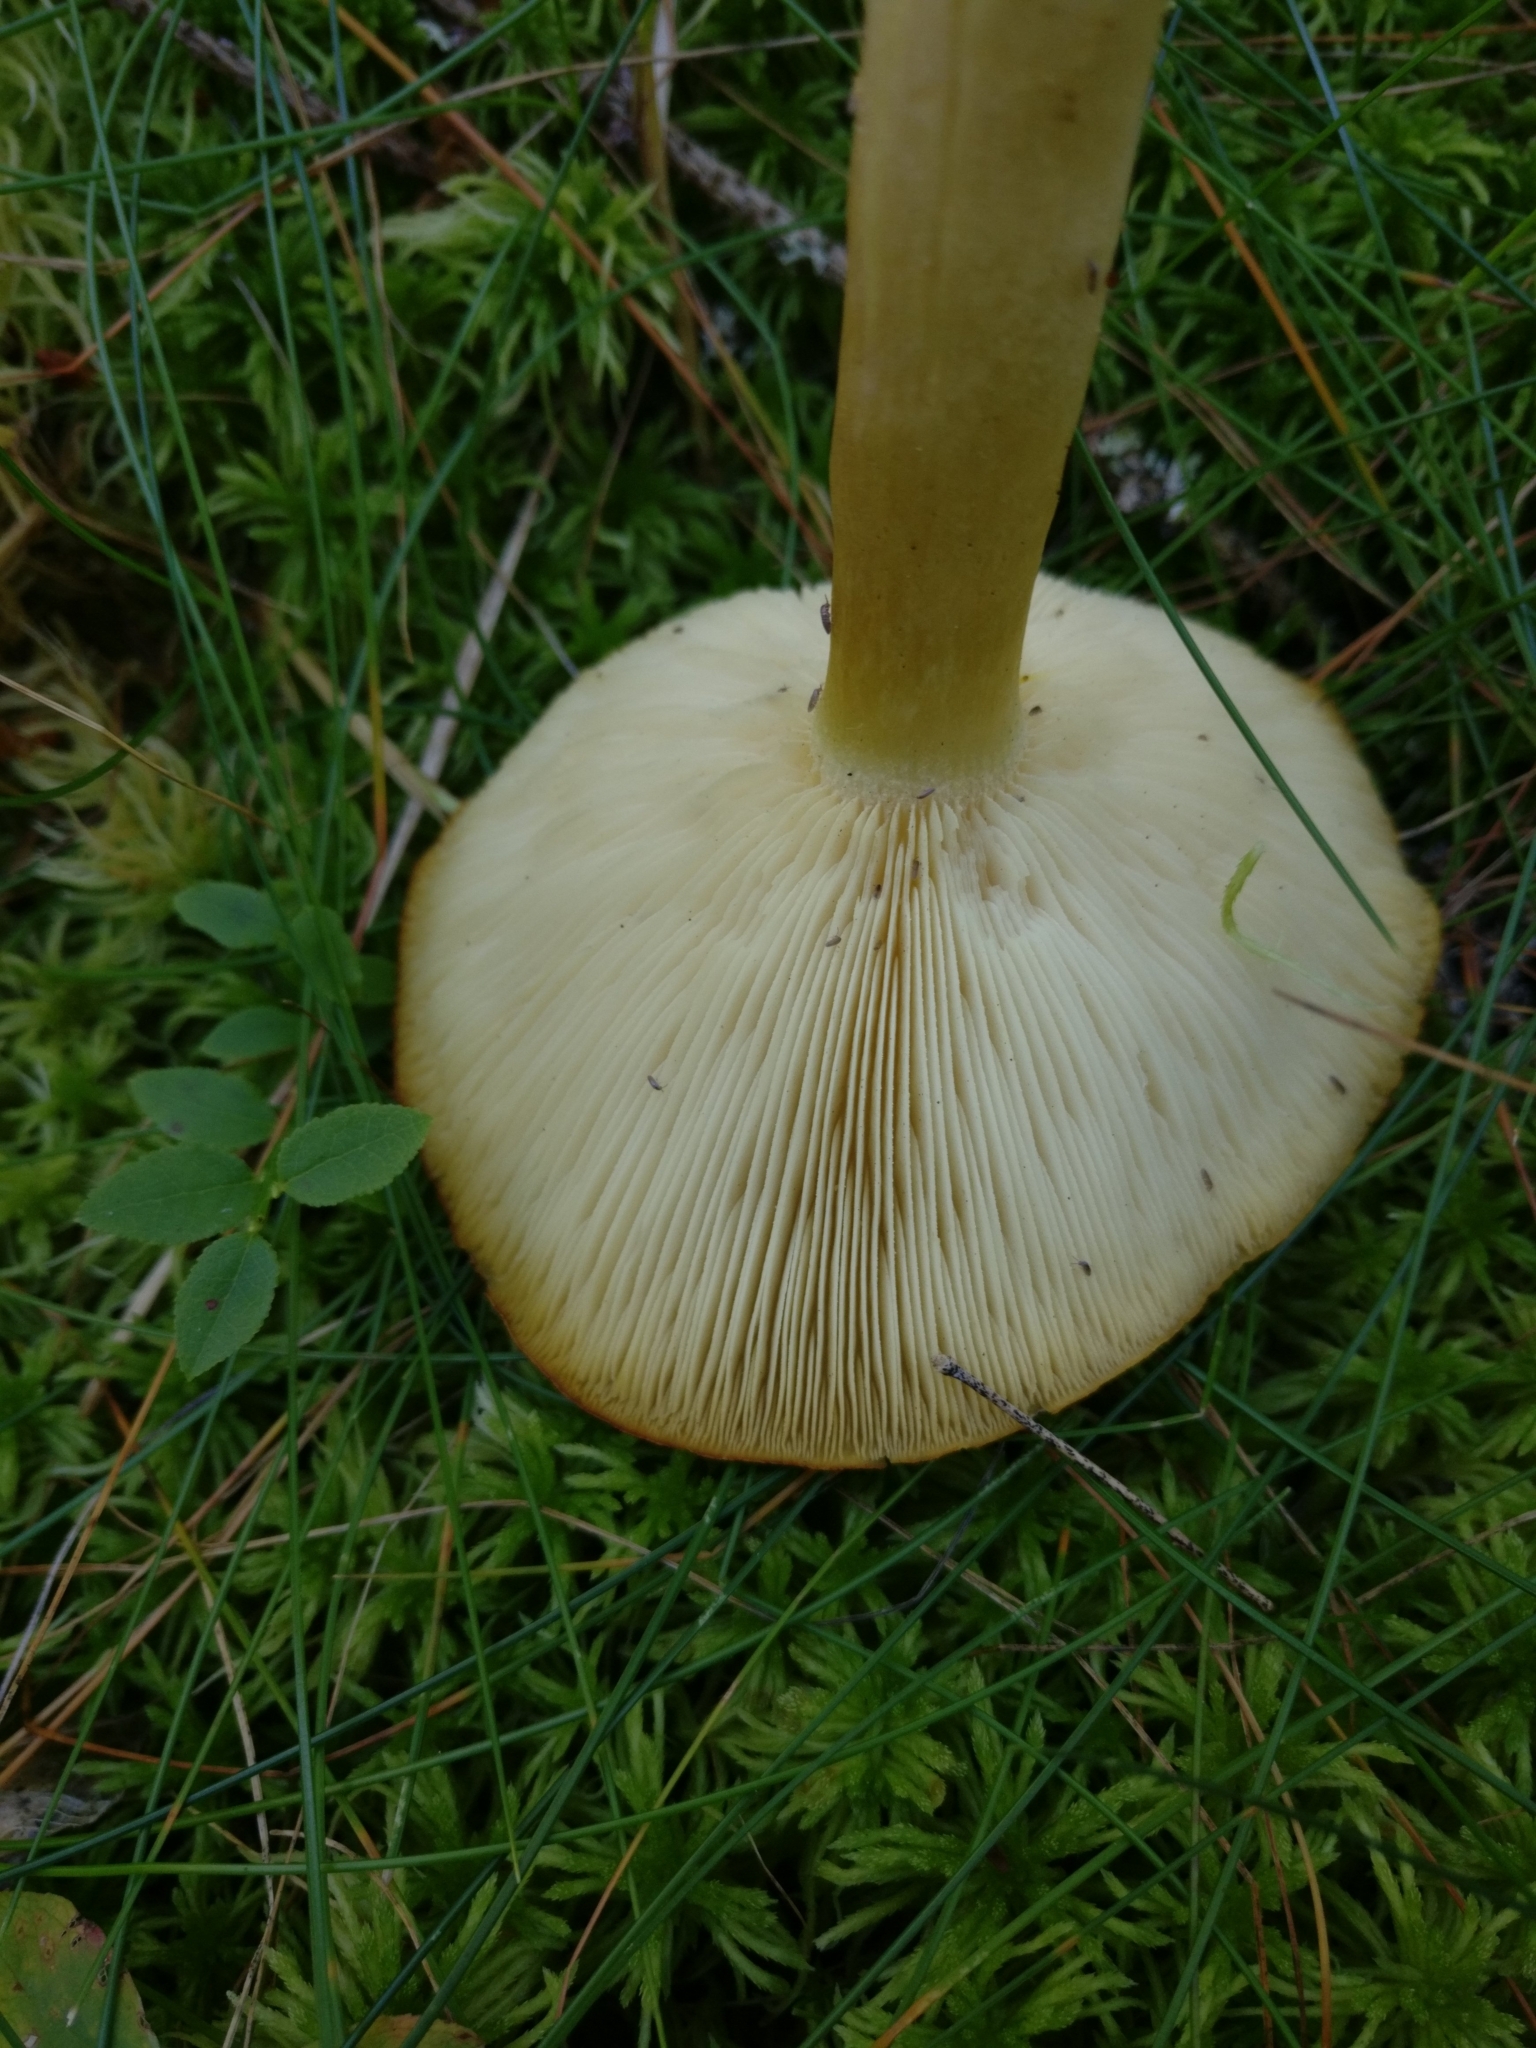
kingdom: Fungi
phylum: Basidiomycota
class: Agaricomycetes
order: Agaricales
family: Tricholomataceae
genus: Tricholomopsis
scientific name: Tricholomopsis rutilans
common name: Plums and custard
